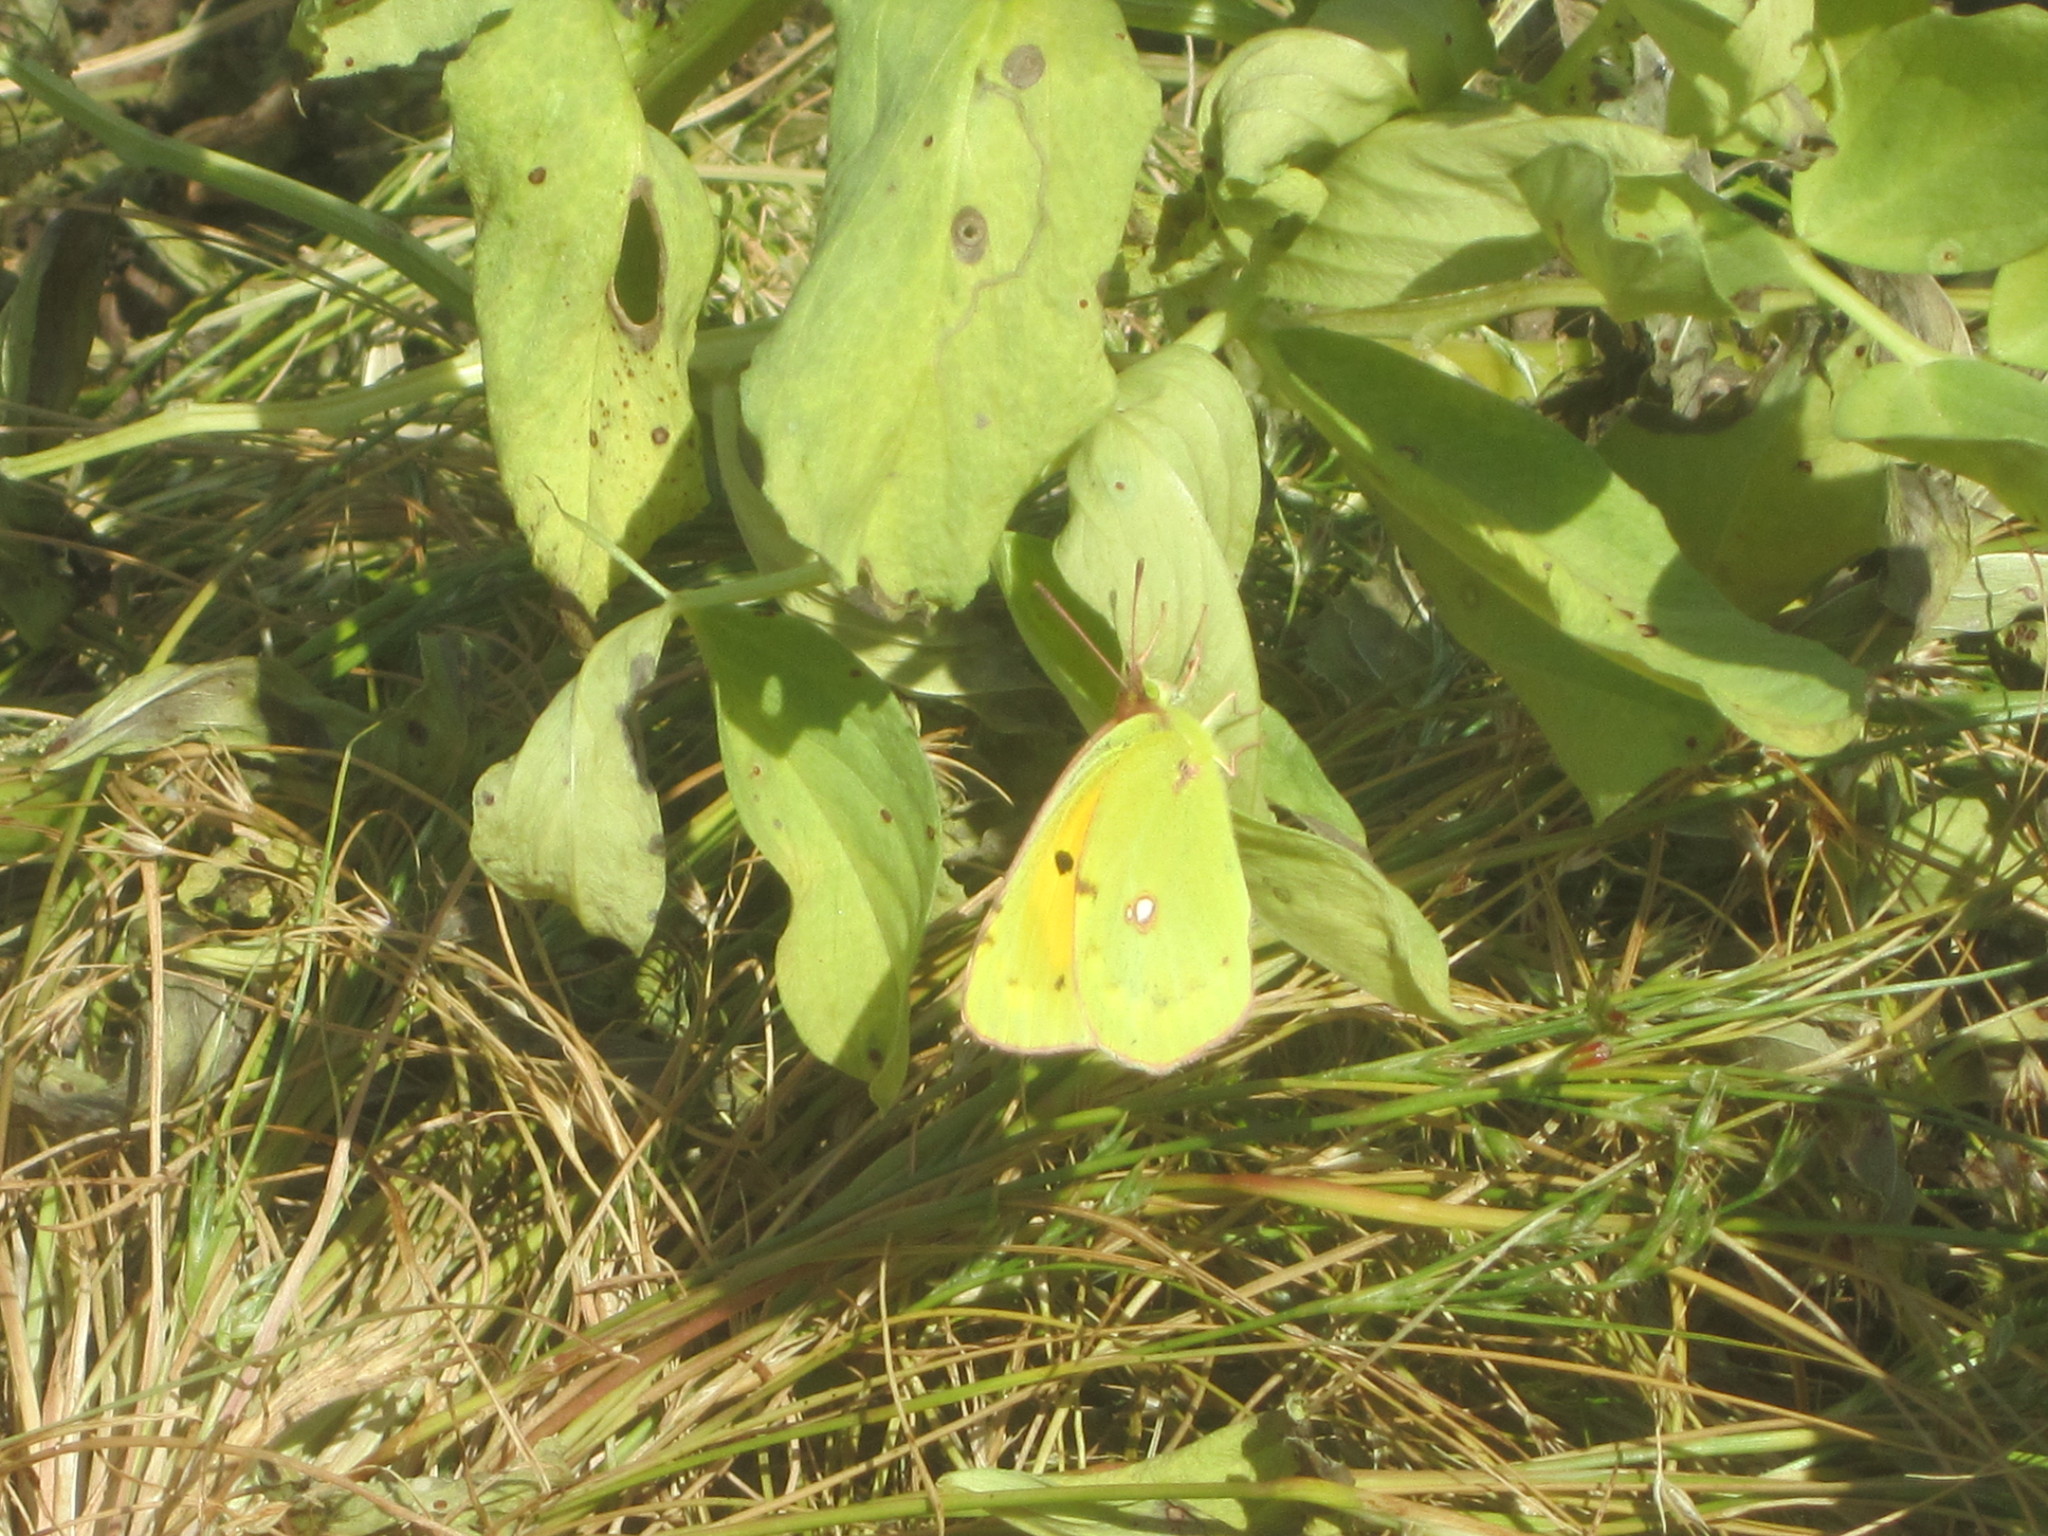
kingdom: Animalia
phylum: Arthropoda
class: Insecta
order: Lepidoptera
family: Pieridae
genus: Colias
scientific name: Colias croceus
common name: Clouded yellow
